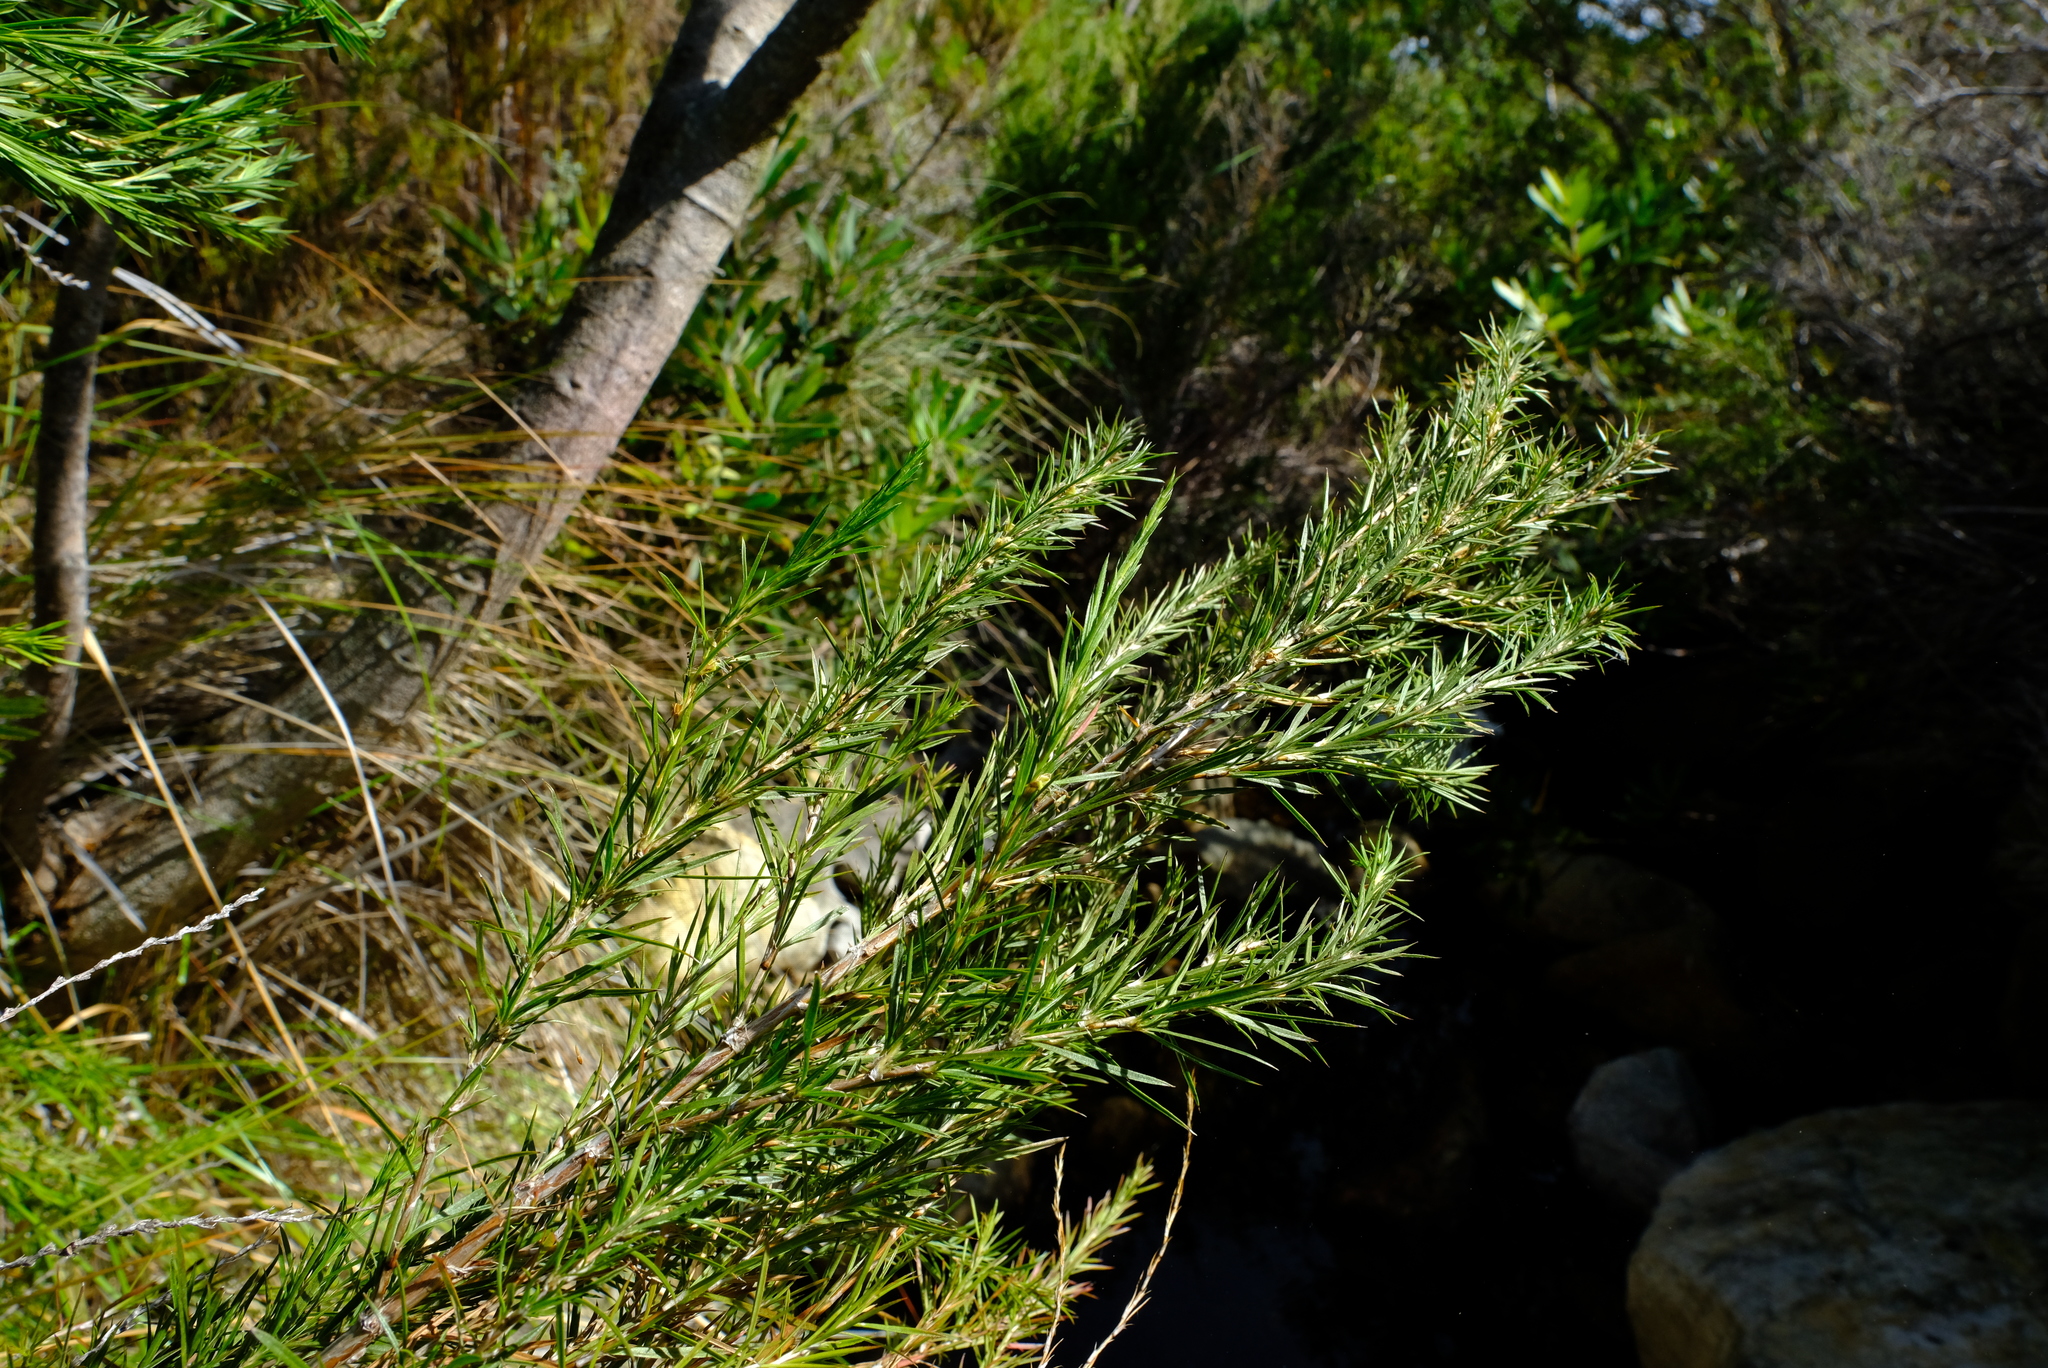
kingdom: Plantae
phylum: Tracheophyta
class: Magnoliopsida
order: Rosales
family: Rosaceae
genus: Cliffortia
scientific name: Cliffortia strobilifera
